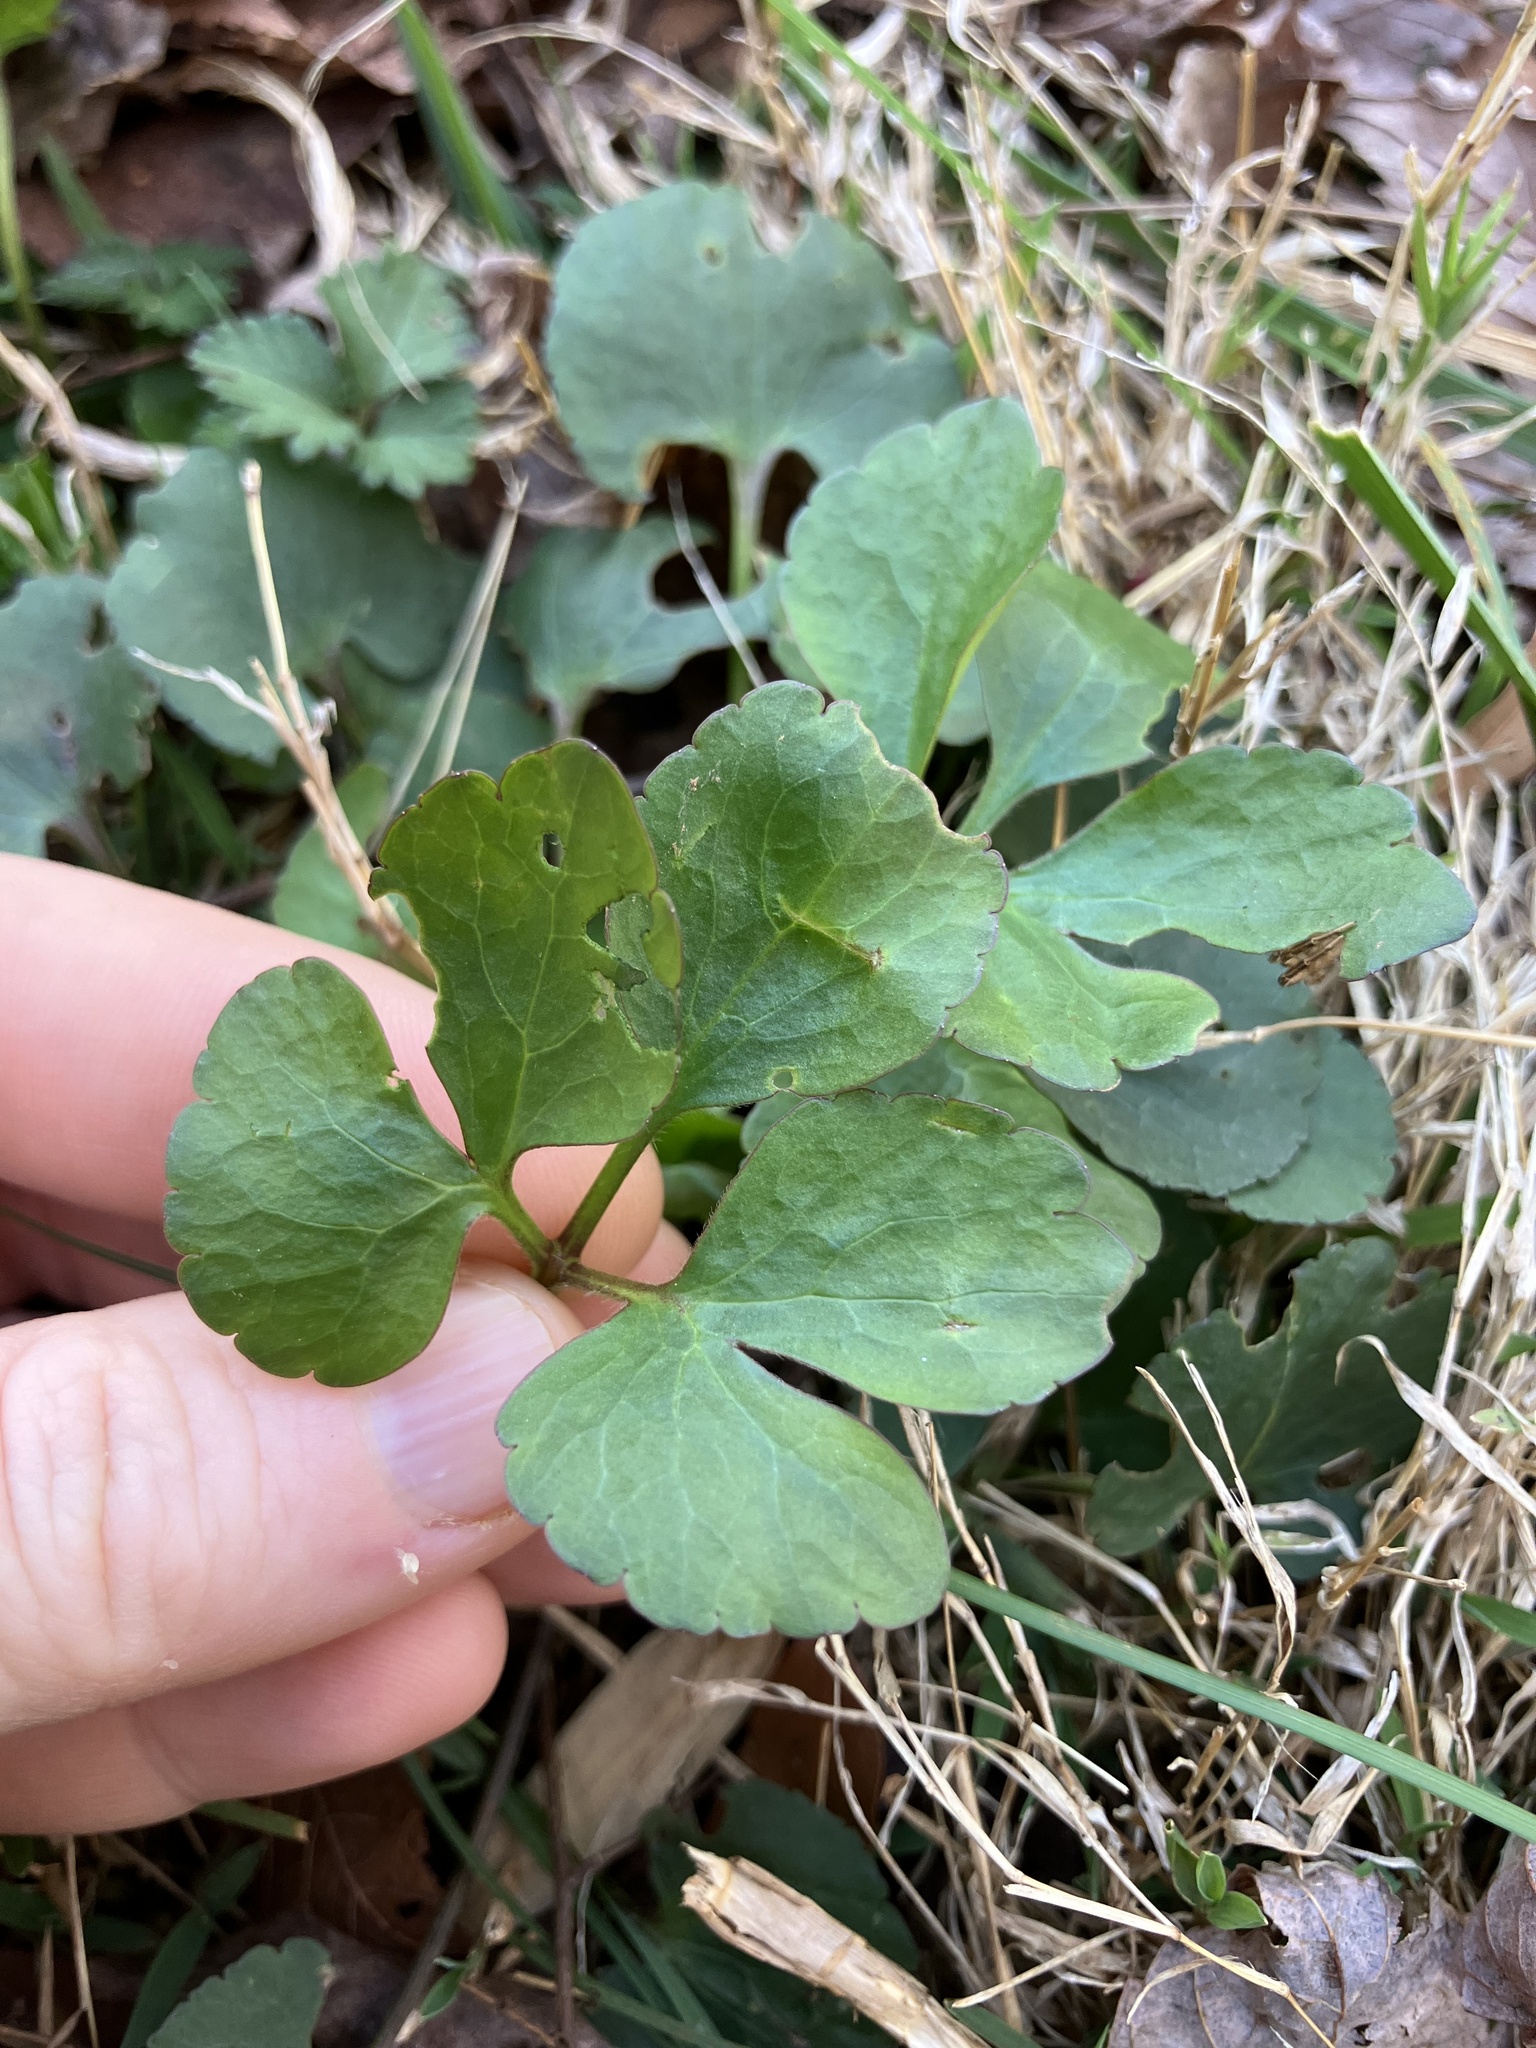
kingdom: Plantae
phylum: Tracheophyta
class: Magnoliopsida
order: Ranunculales
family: Ranunculaceae
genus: Ranunculus
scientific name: Ranunculus abortivus
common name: Early wood buttercup
